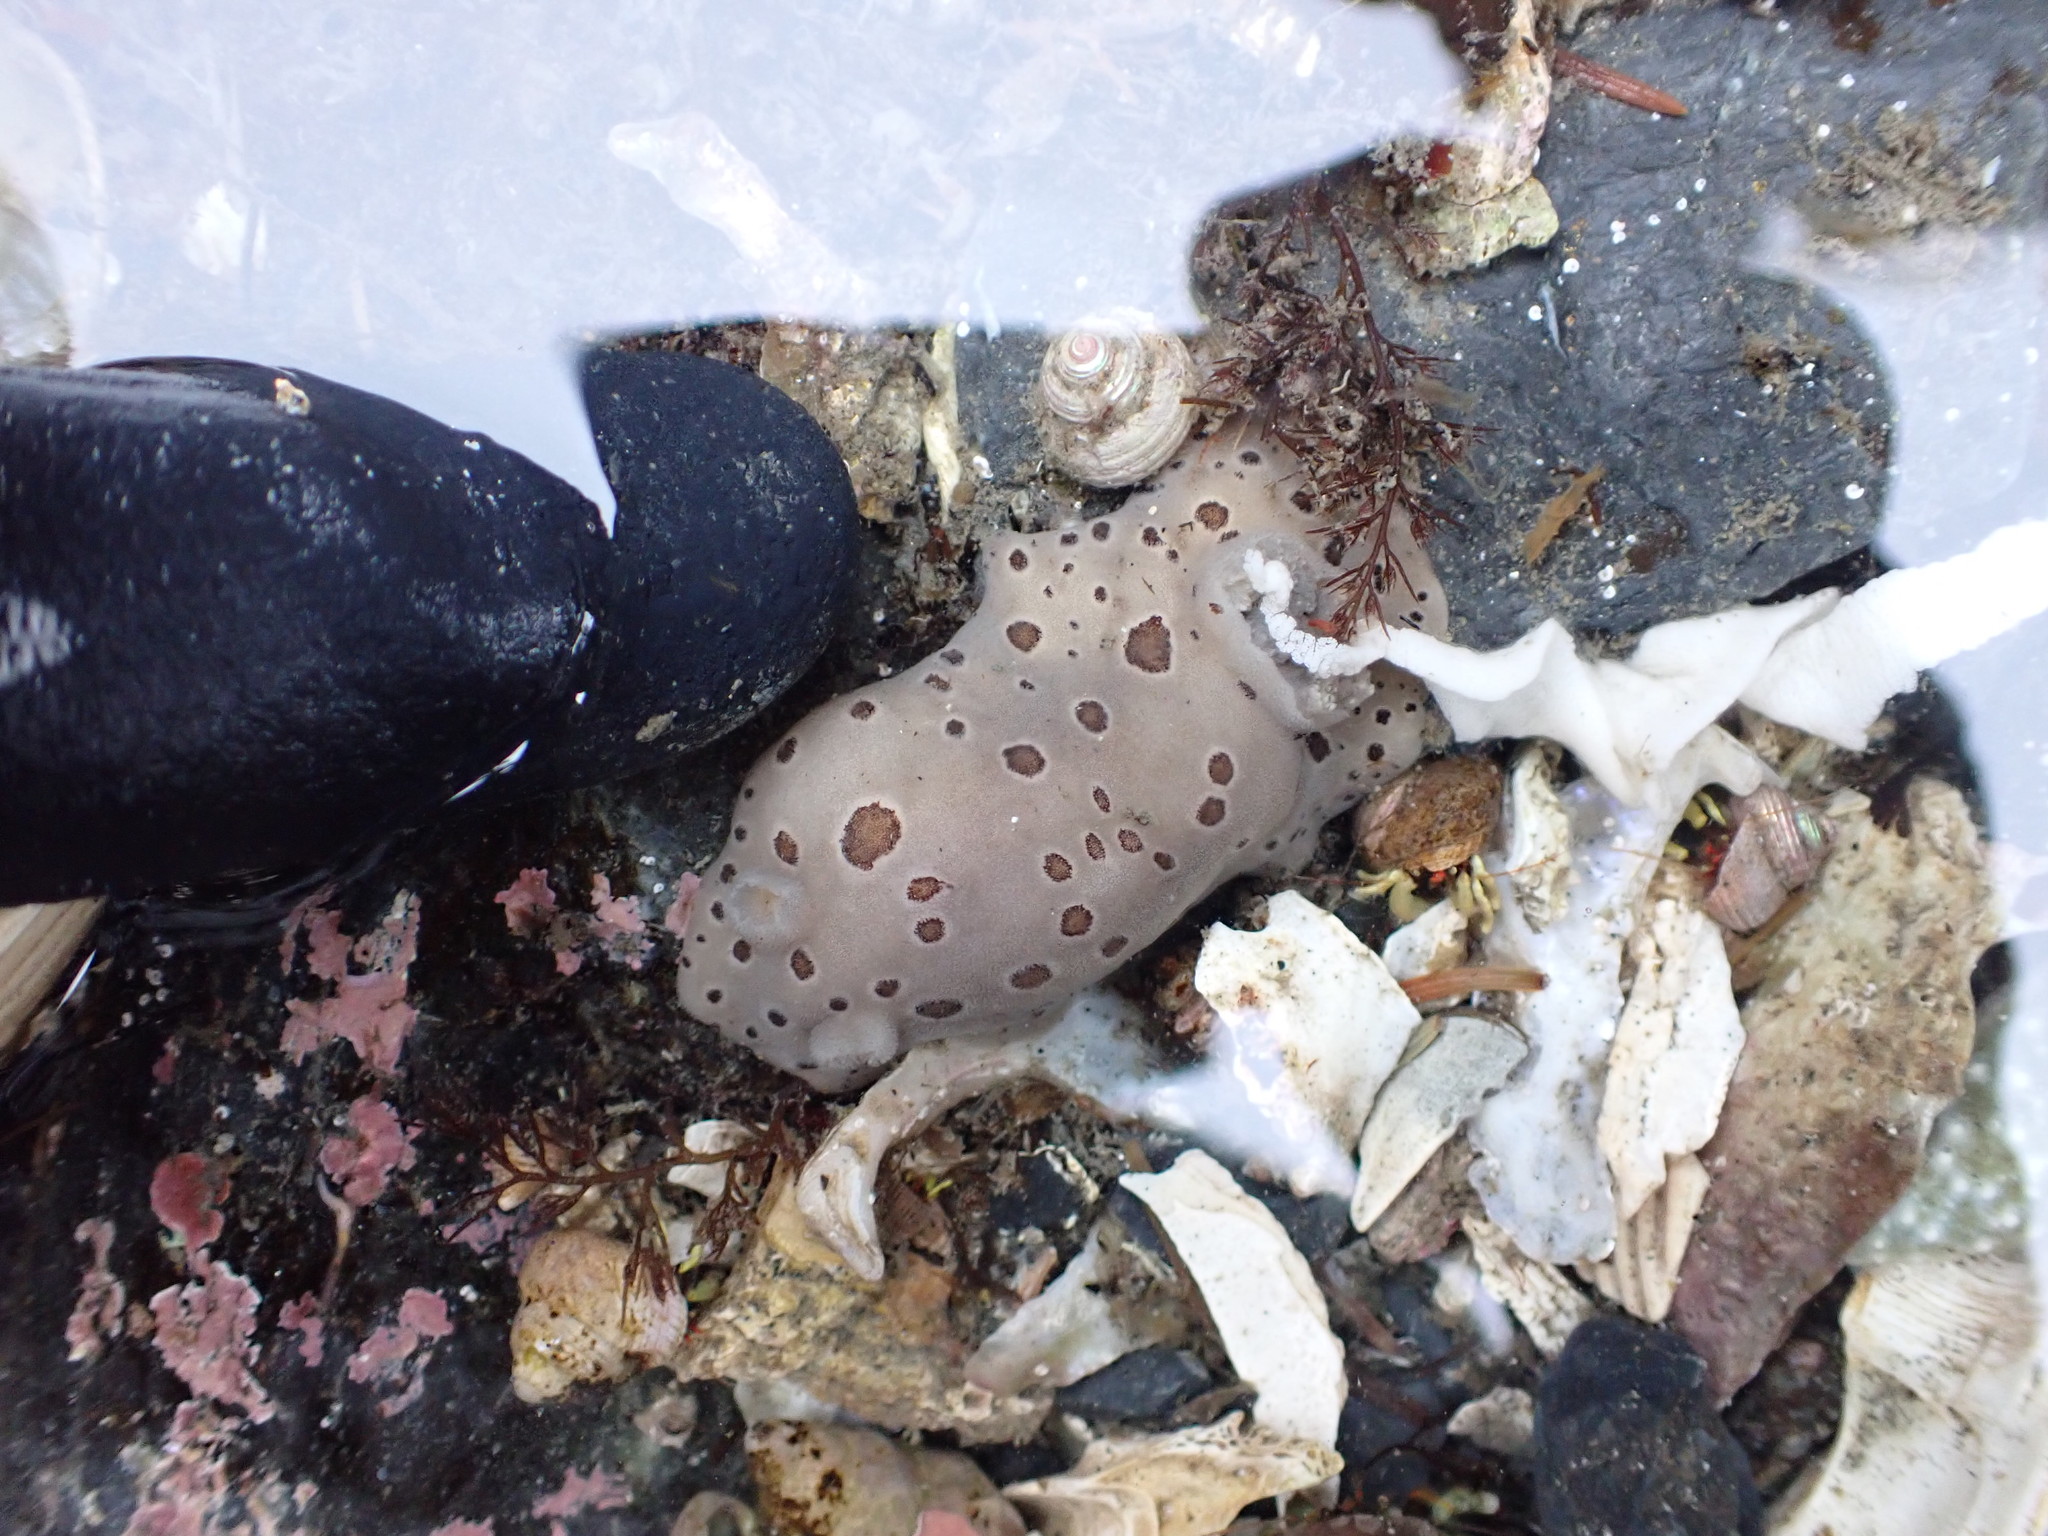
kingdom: Animalia
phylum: Mollusca
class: Gastropoda
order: Nudibranchia
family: Discodorididae
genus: Diaulula
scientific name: Diaulula odonoghuei
